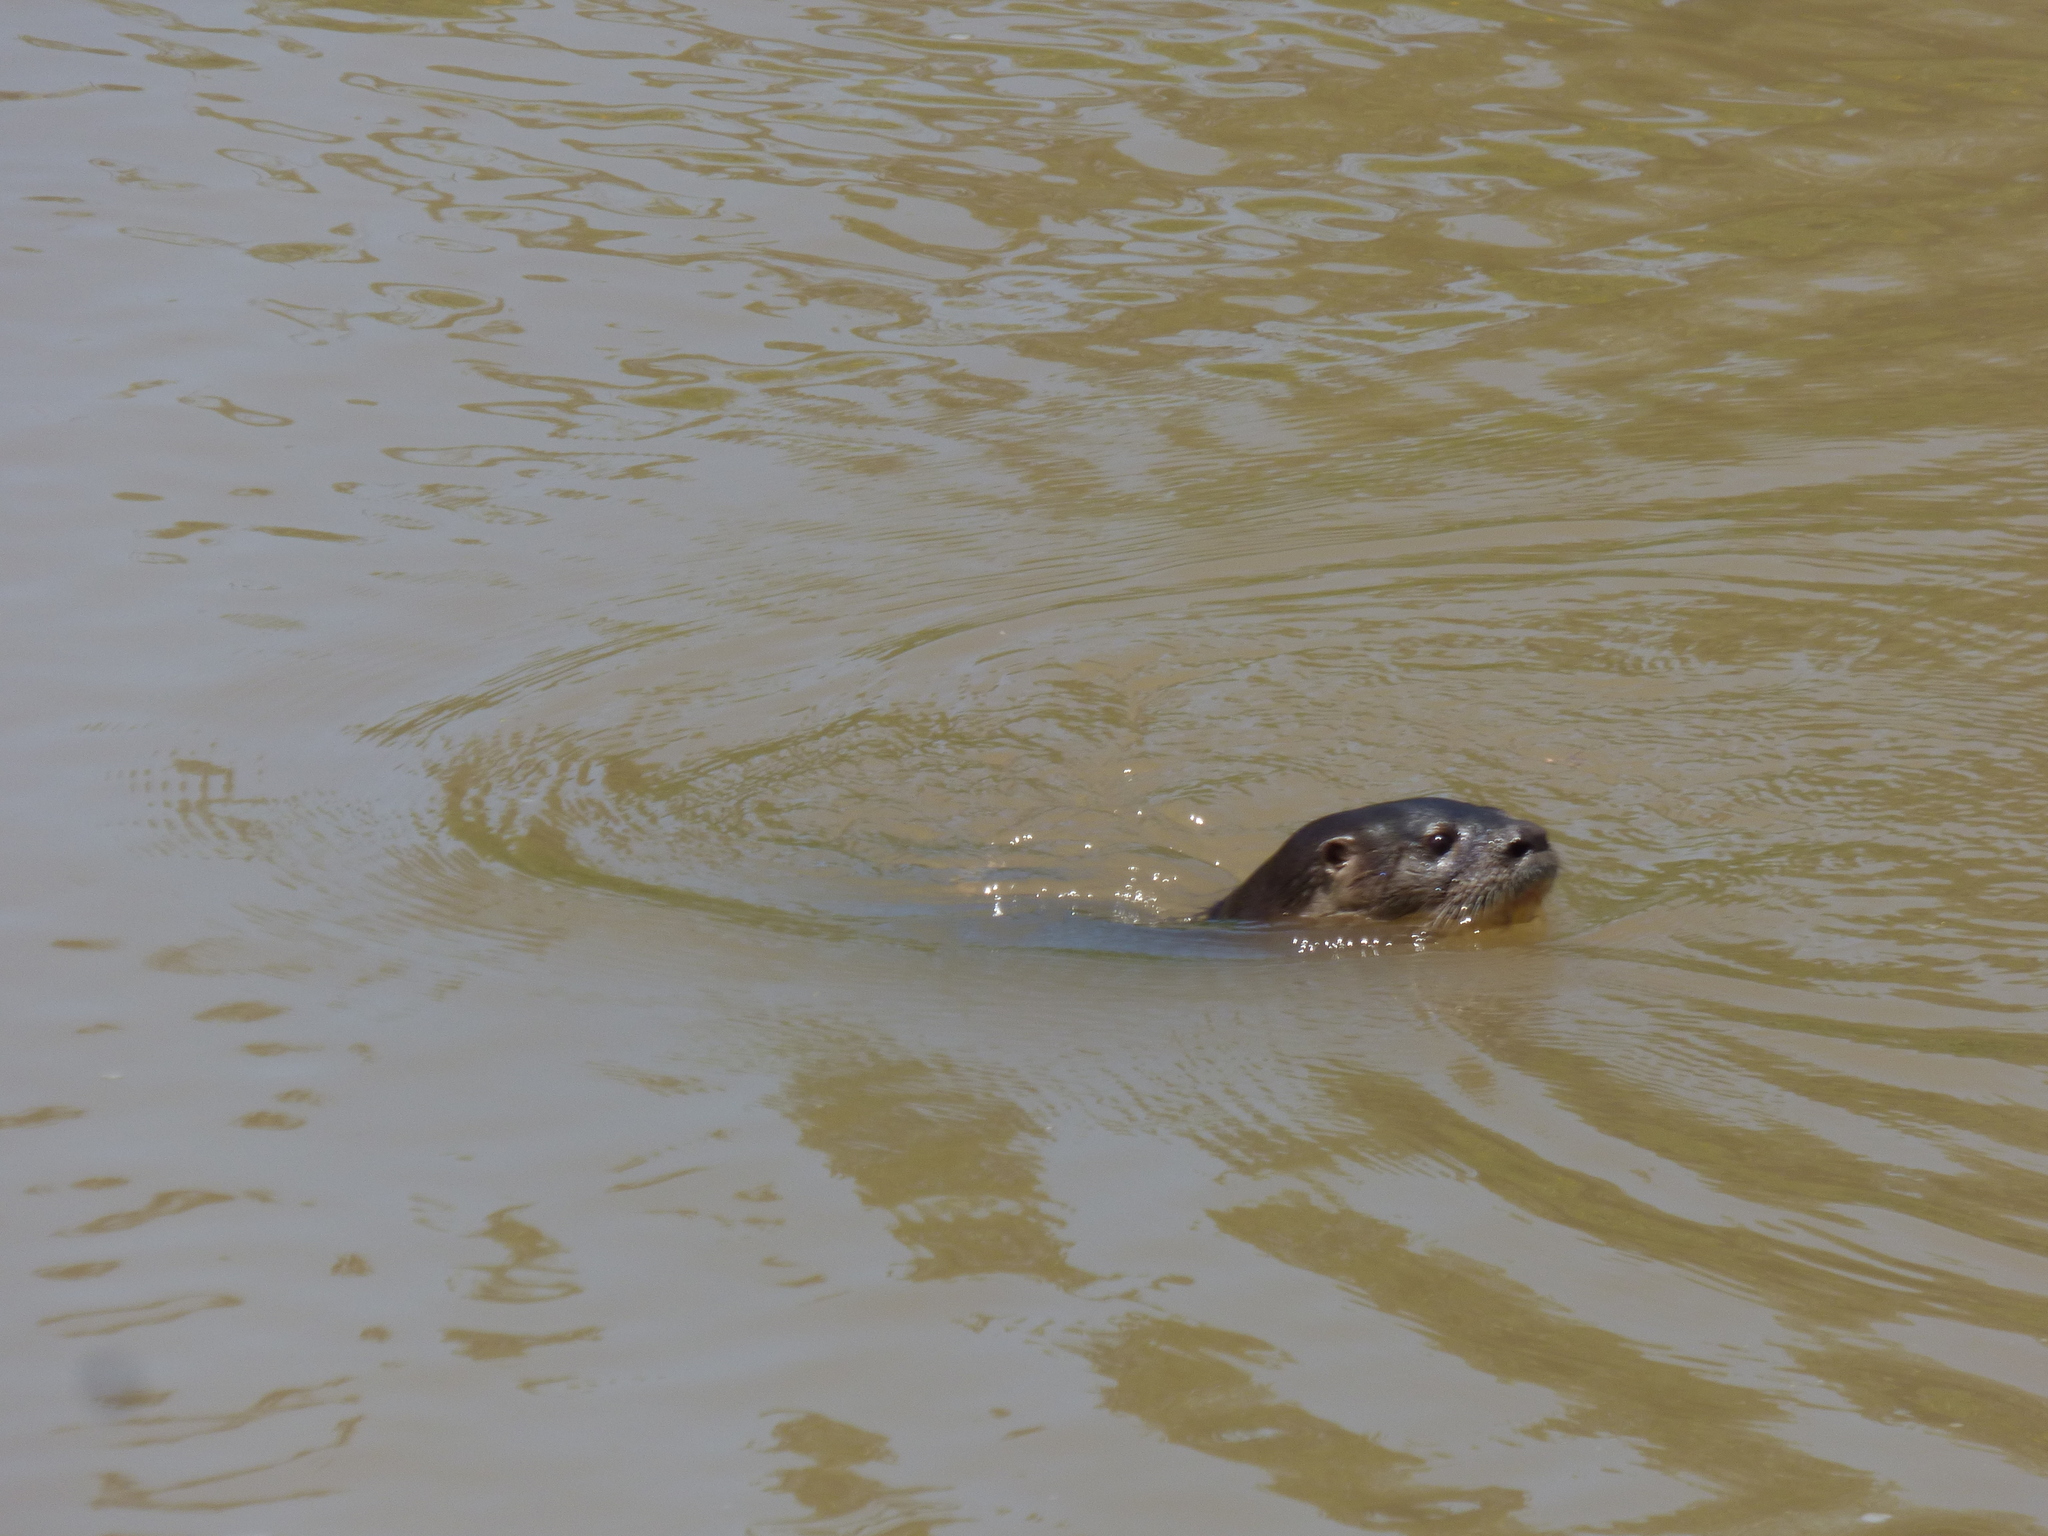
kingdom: Animalia
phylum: Chordata
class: Mammalia
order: Carnivora
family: Mustelidae
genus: Lontra
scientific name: Lontra longicaudis
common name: Neotropical otter
